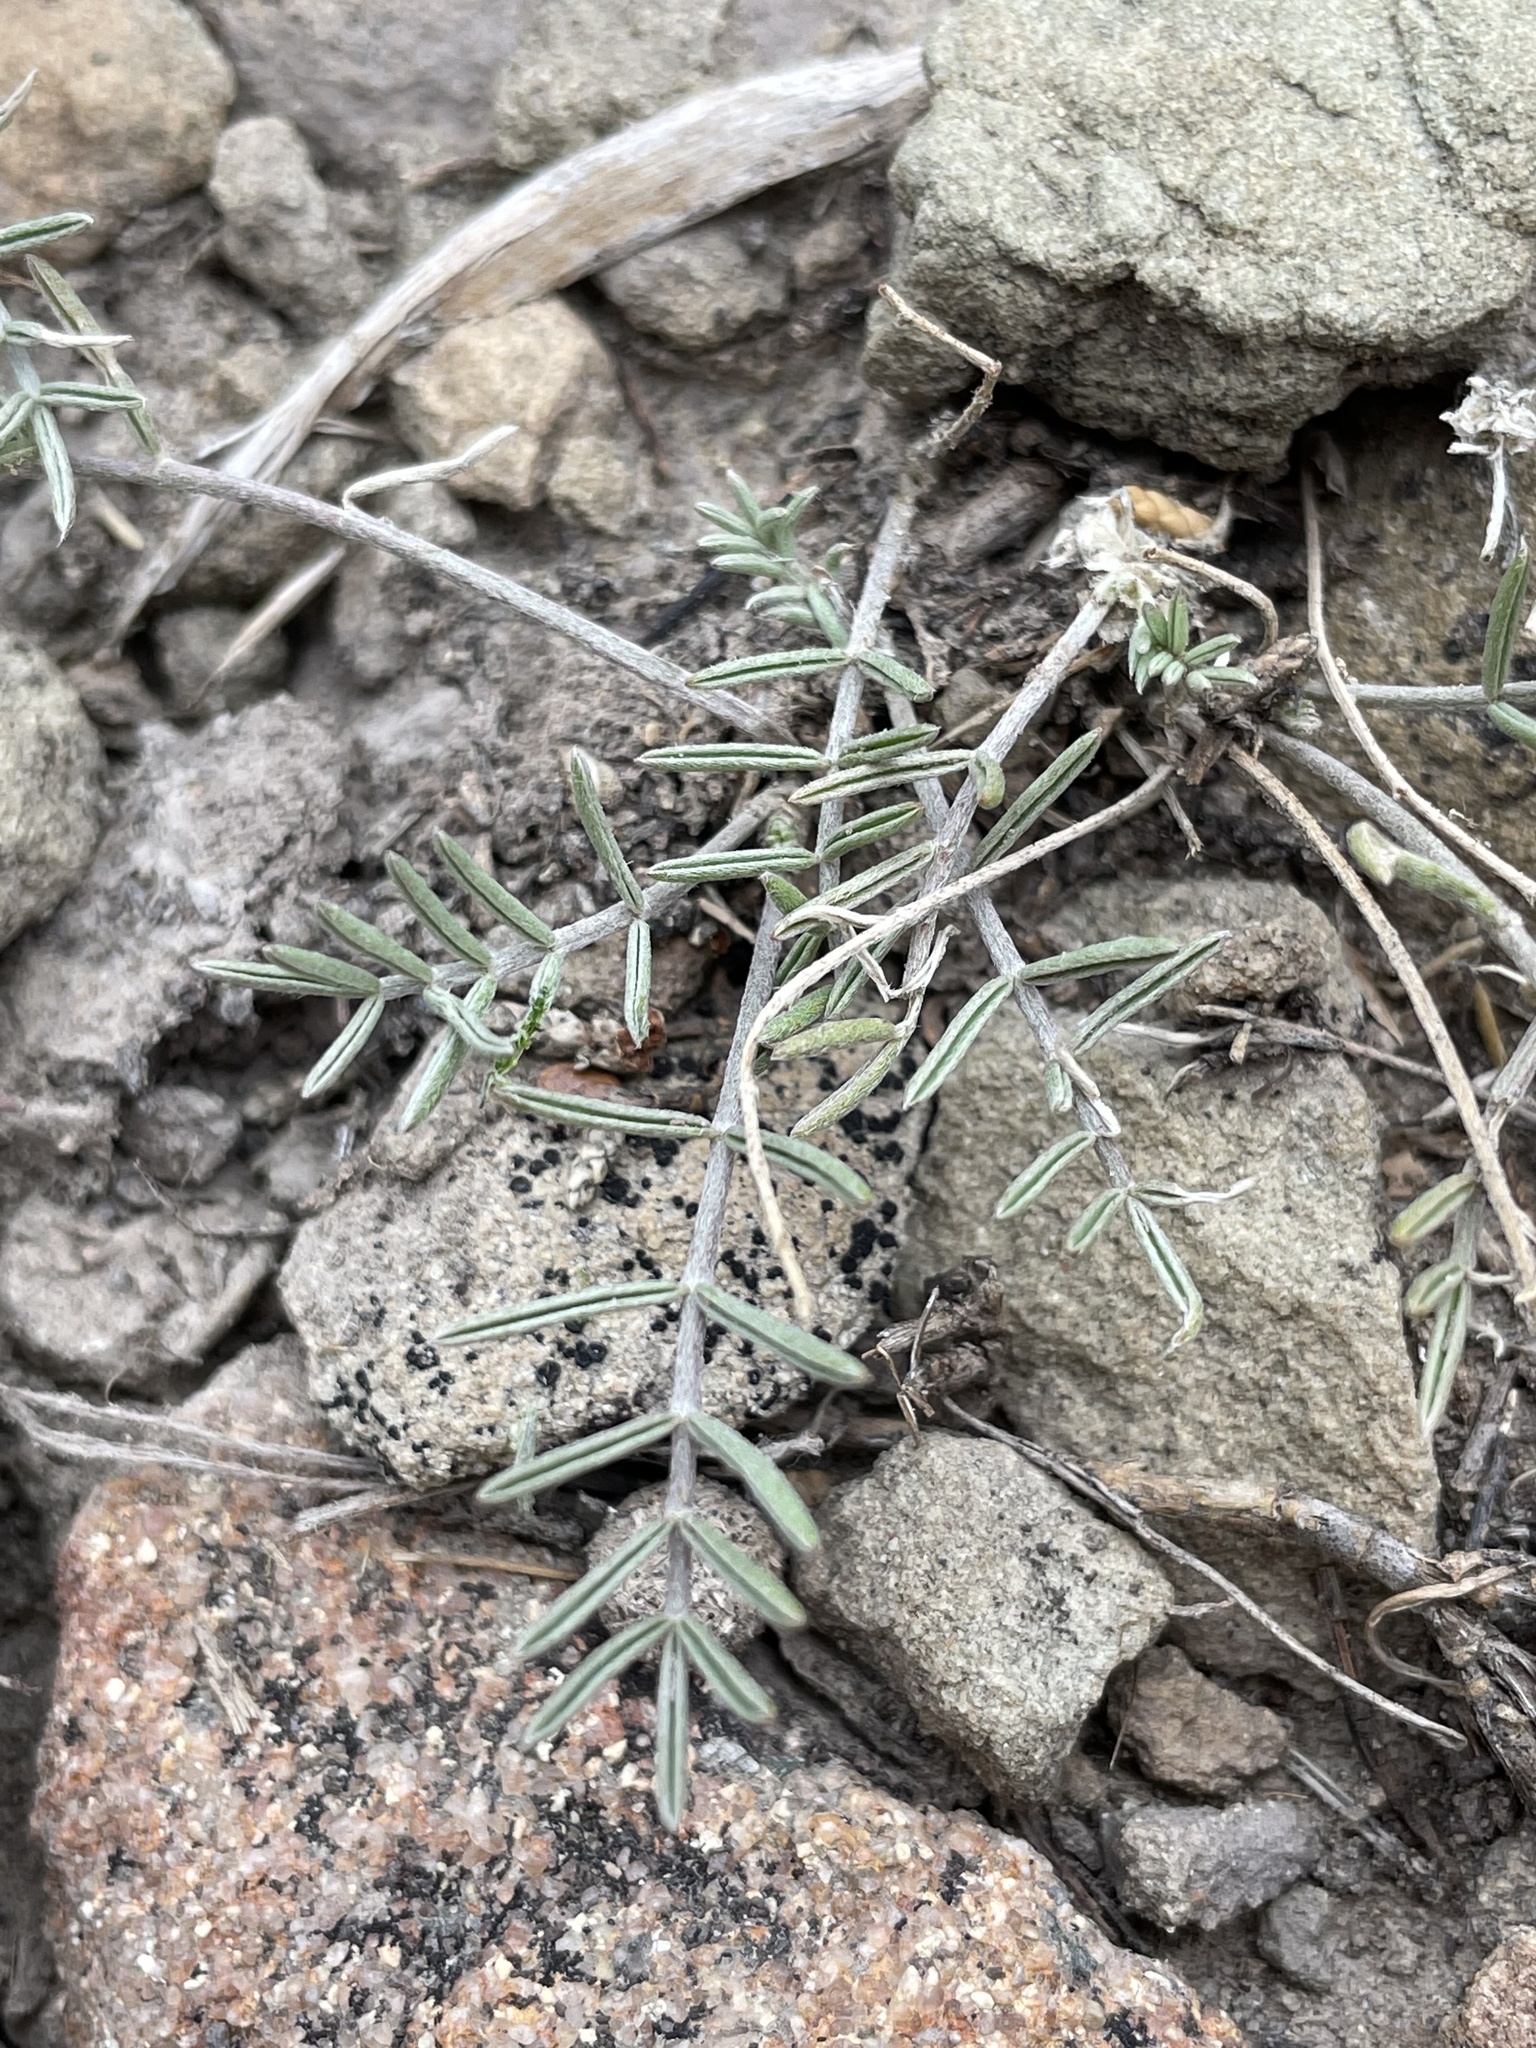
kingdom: Plantae
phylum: Tracheophyta
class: Magnoliopsida
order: Fabales
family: Fabaceae
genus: Astragalus
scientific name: Astragalus flavus
